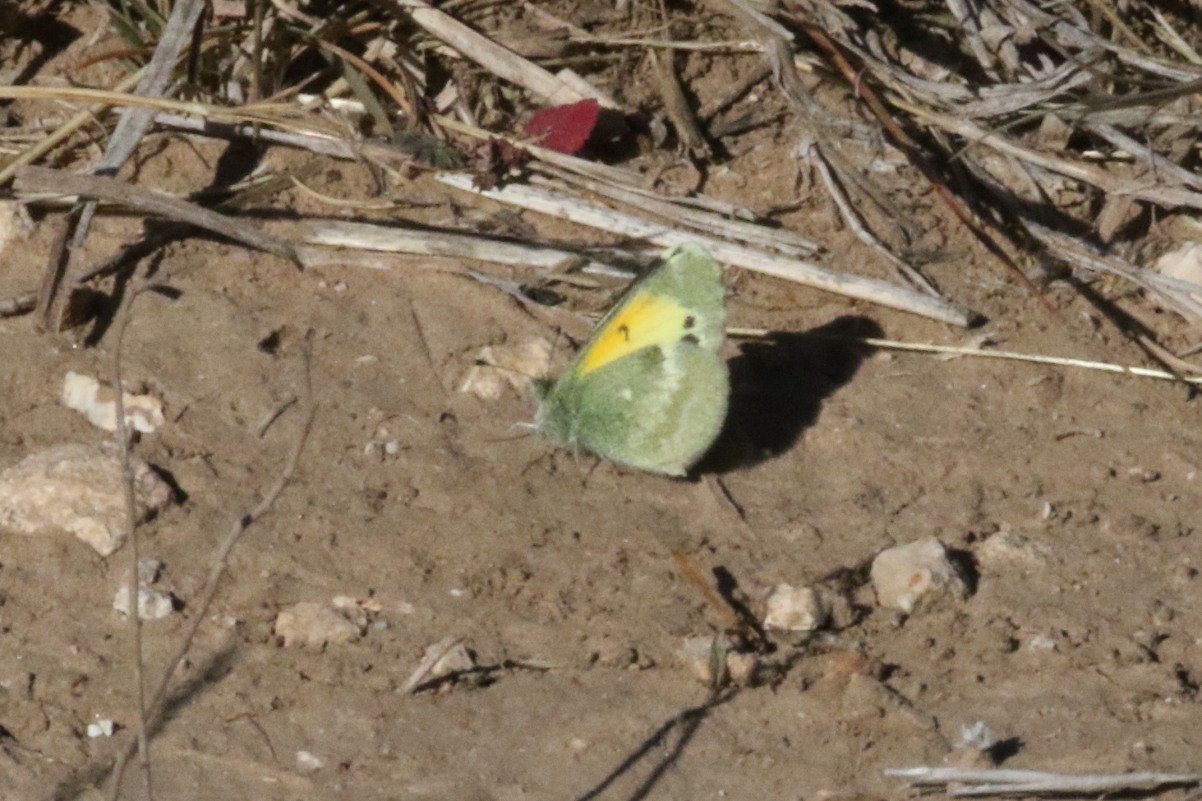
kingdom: Animalia
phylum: Arthropoda
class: Insecta
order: Lepidoptera
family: Pieridae
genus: Nathalis
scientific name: Nathalis iole
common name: Dainty sulphur
